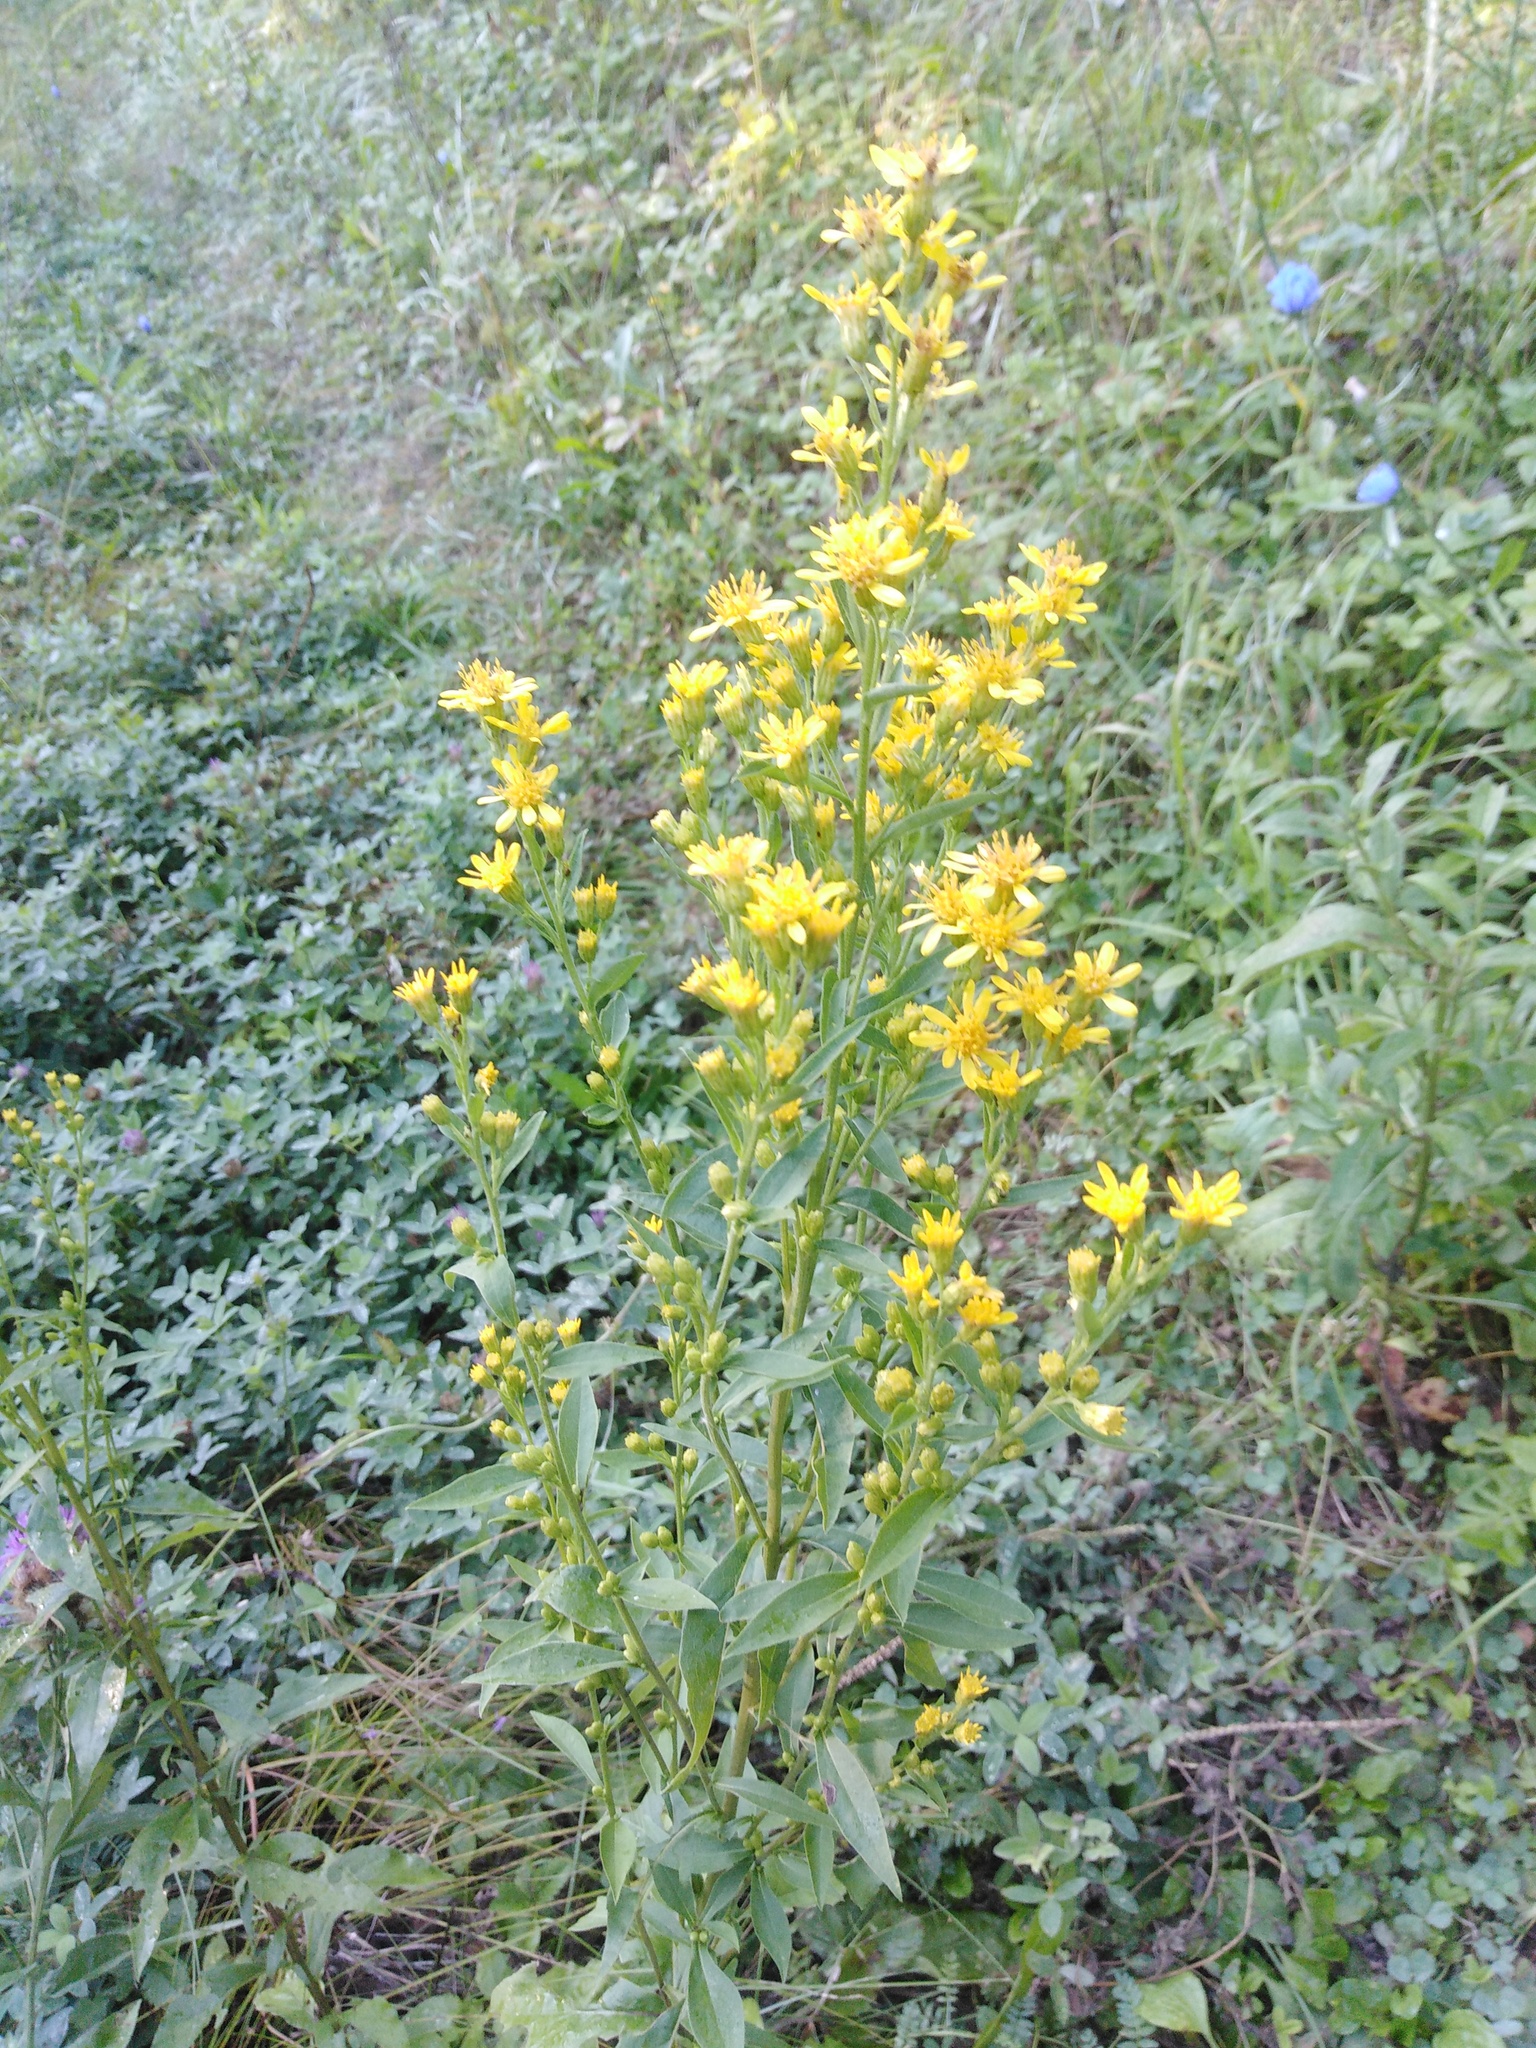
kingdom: Plantae
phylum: Tracheophyta
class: Magnoliopsida
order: Asterales
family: Asteraceae
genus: Solidago
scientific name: Solidago virgaurea
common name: Goldenrod
